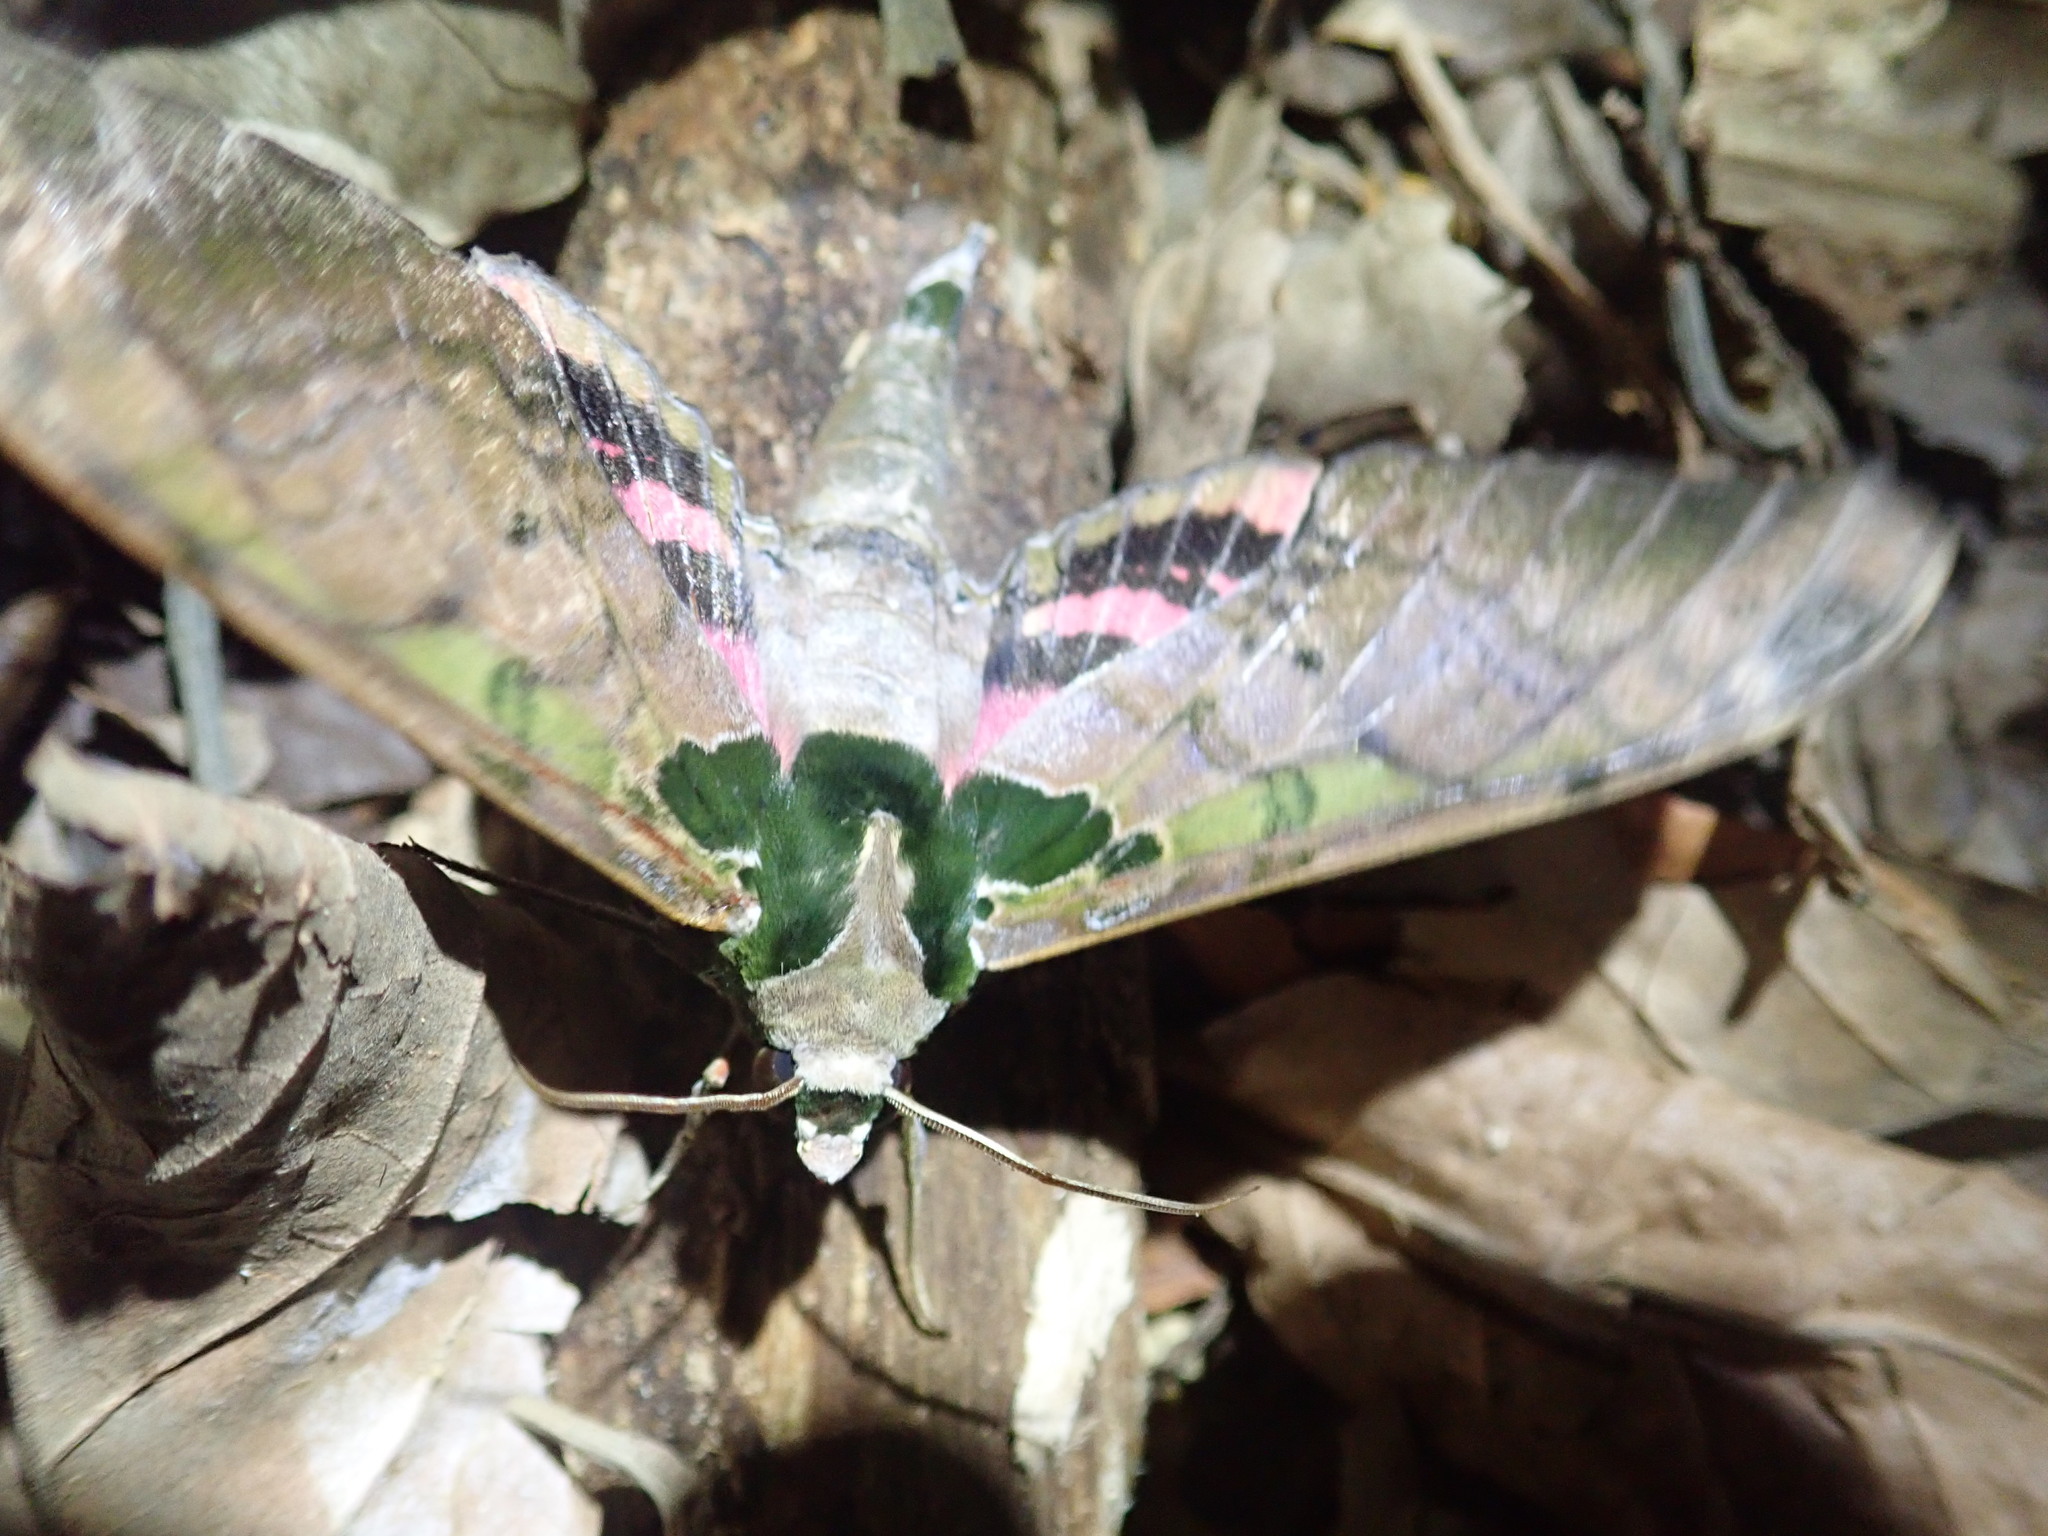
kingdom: Animalia
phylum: Arthropoda
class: Insecta
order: Lepidoptera
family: Sphingidae
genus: Adhemarius
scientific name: Adhemarius ypsilon
